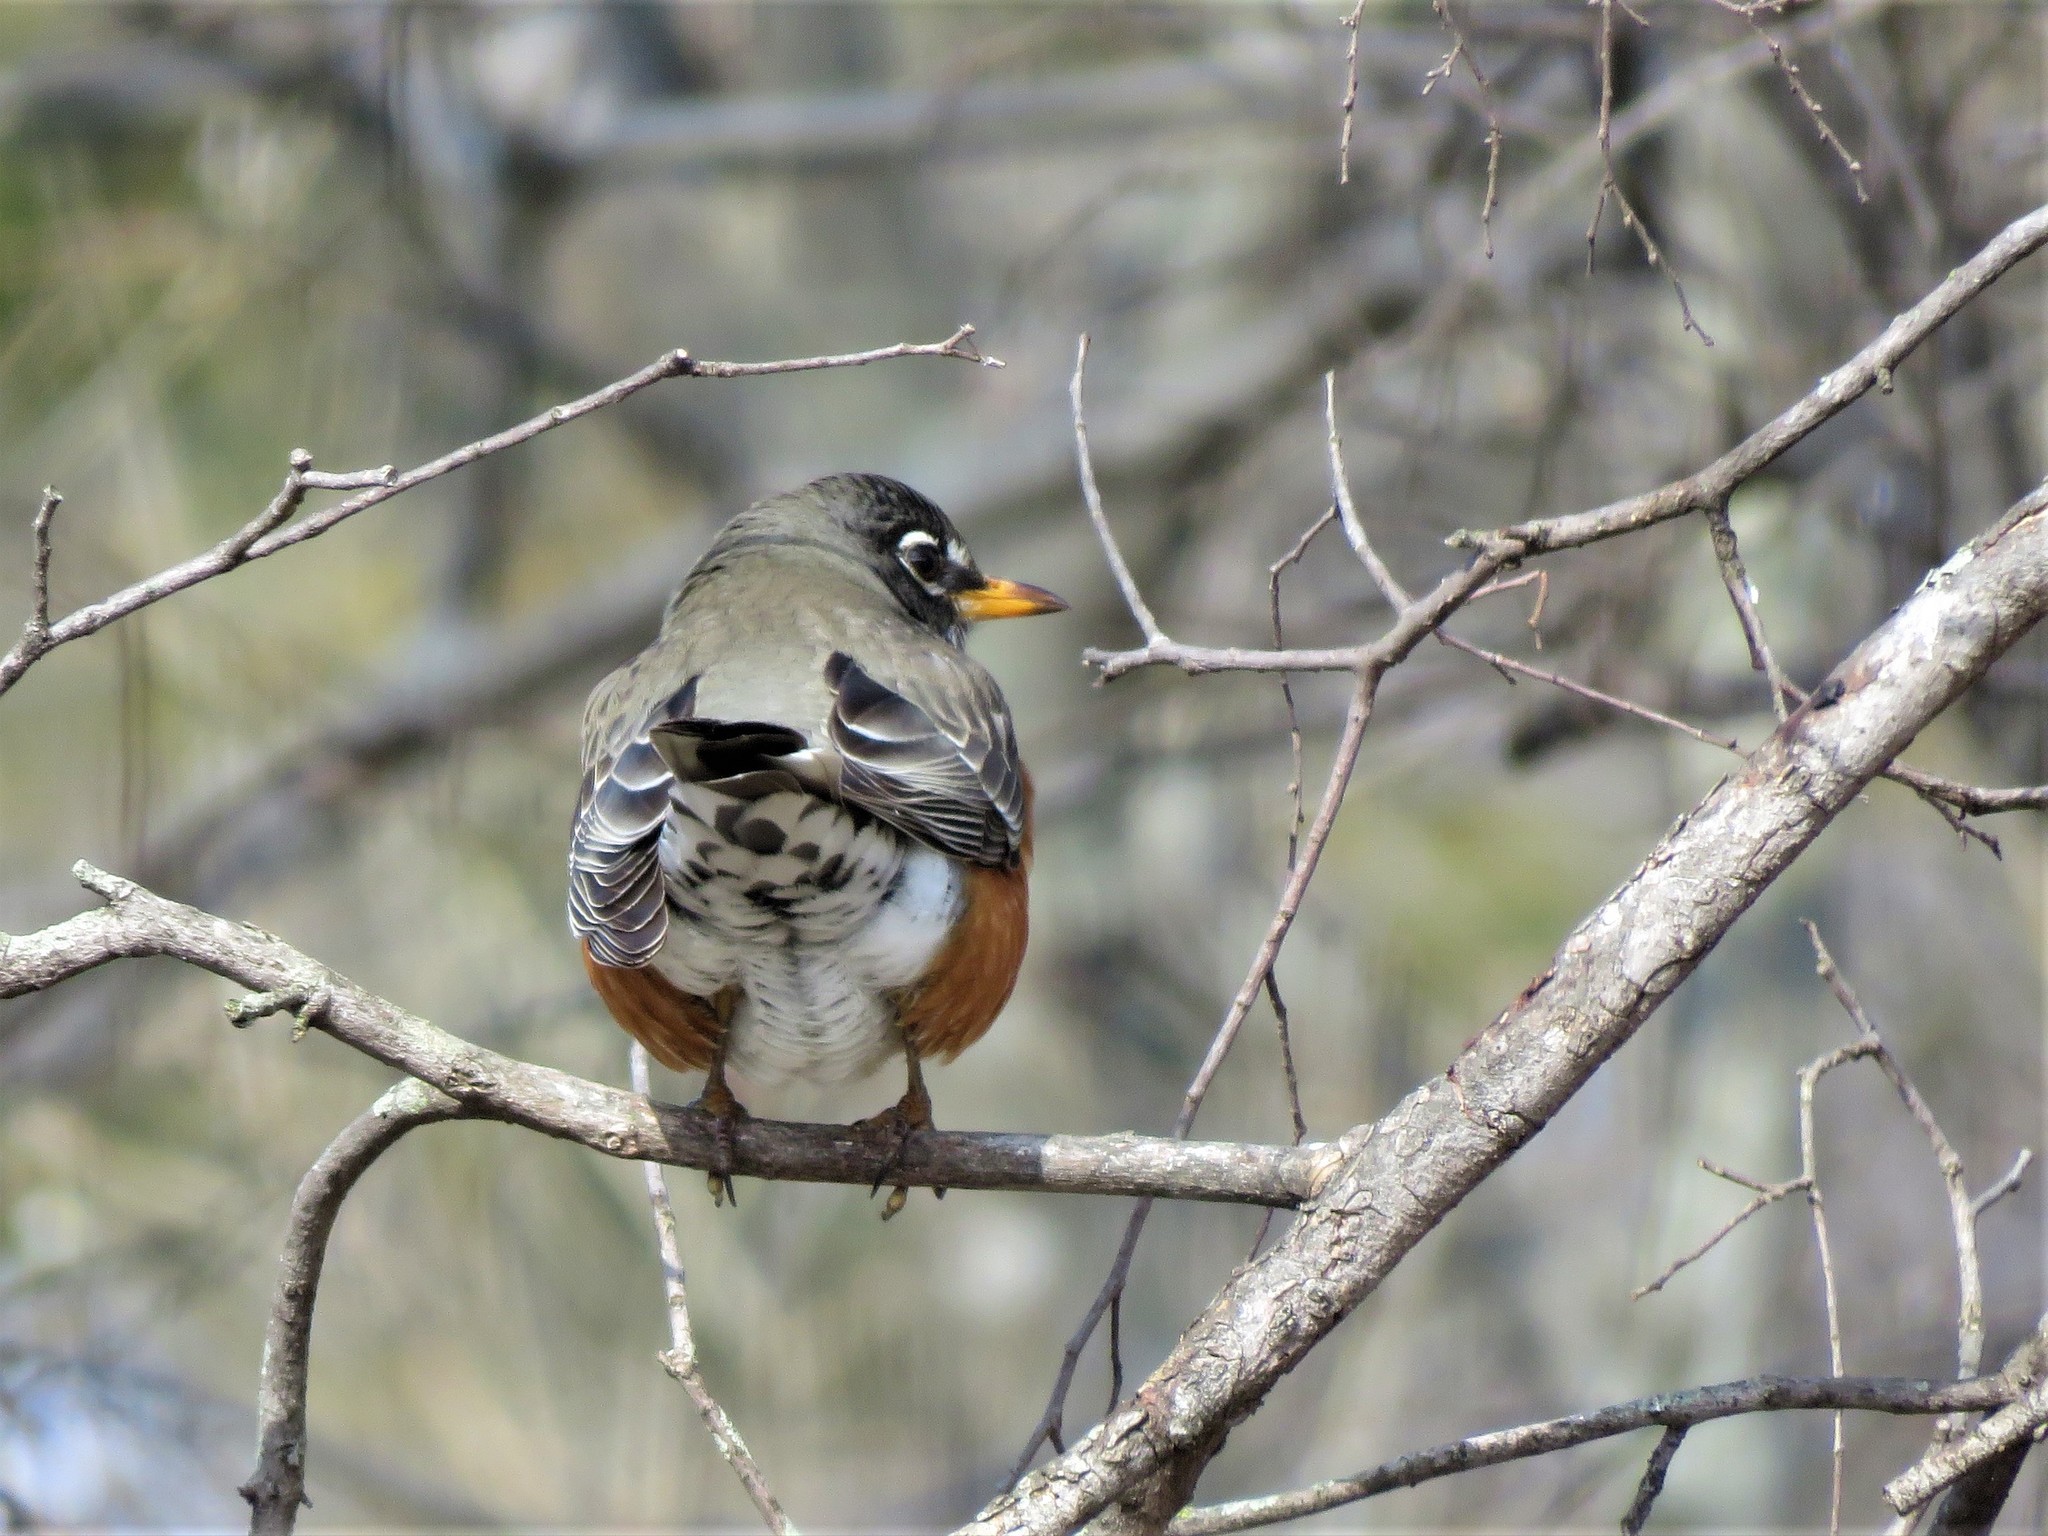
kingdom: Animalia
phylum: Chordata
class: Aves
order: Passeriformes
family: Turdidae
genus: Turdus
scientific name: Turdus migratorius
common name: American robin
